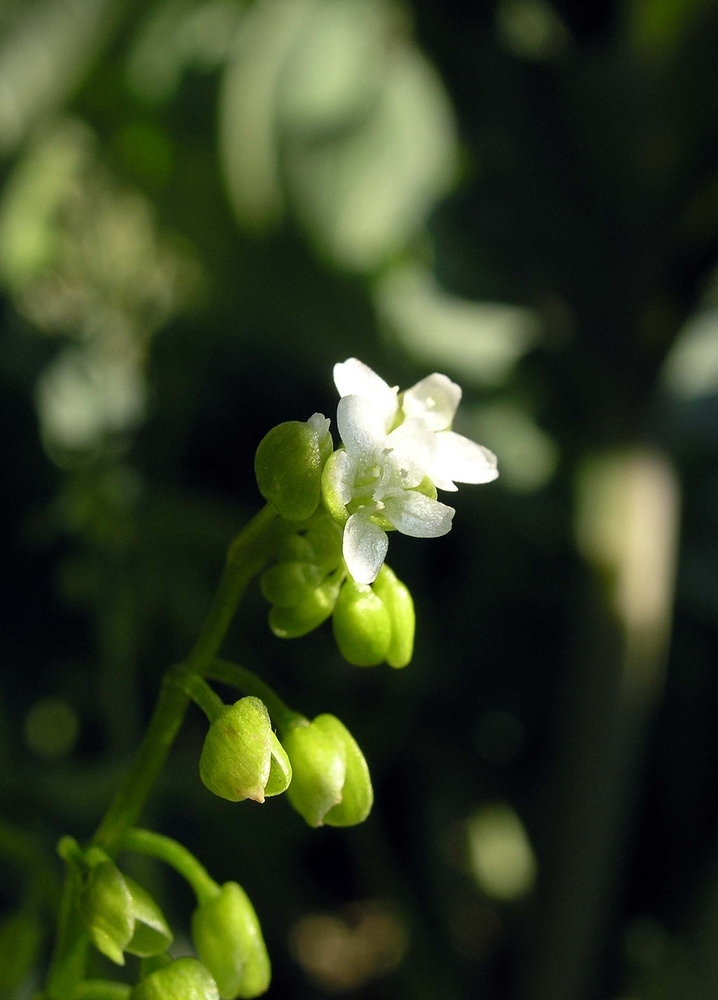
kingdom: Plantae
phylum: Tracheophyta
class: Magnoliopsida
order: Caryophyllales
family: Montiaceae
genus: Claytonia
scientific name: Claytonia perfoliata
